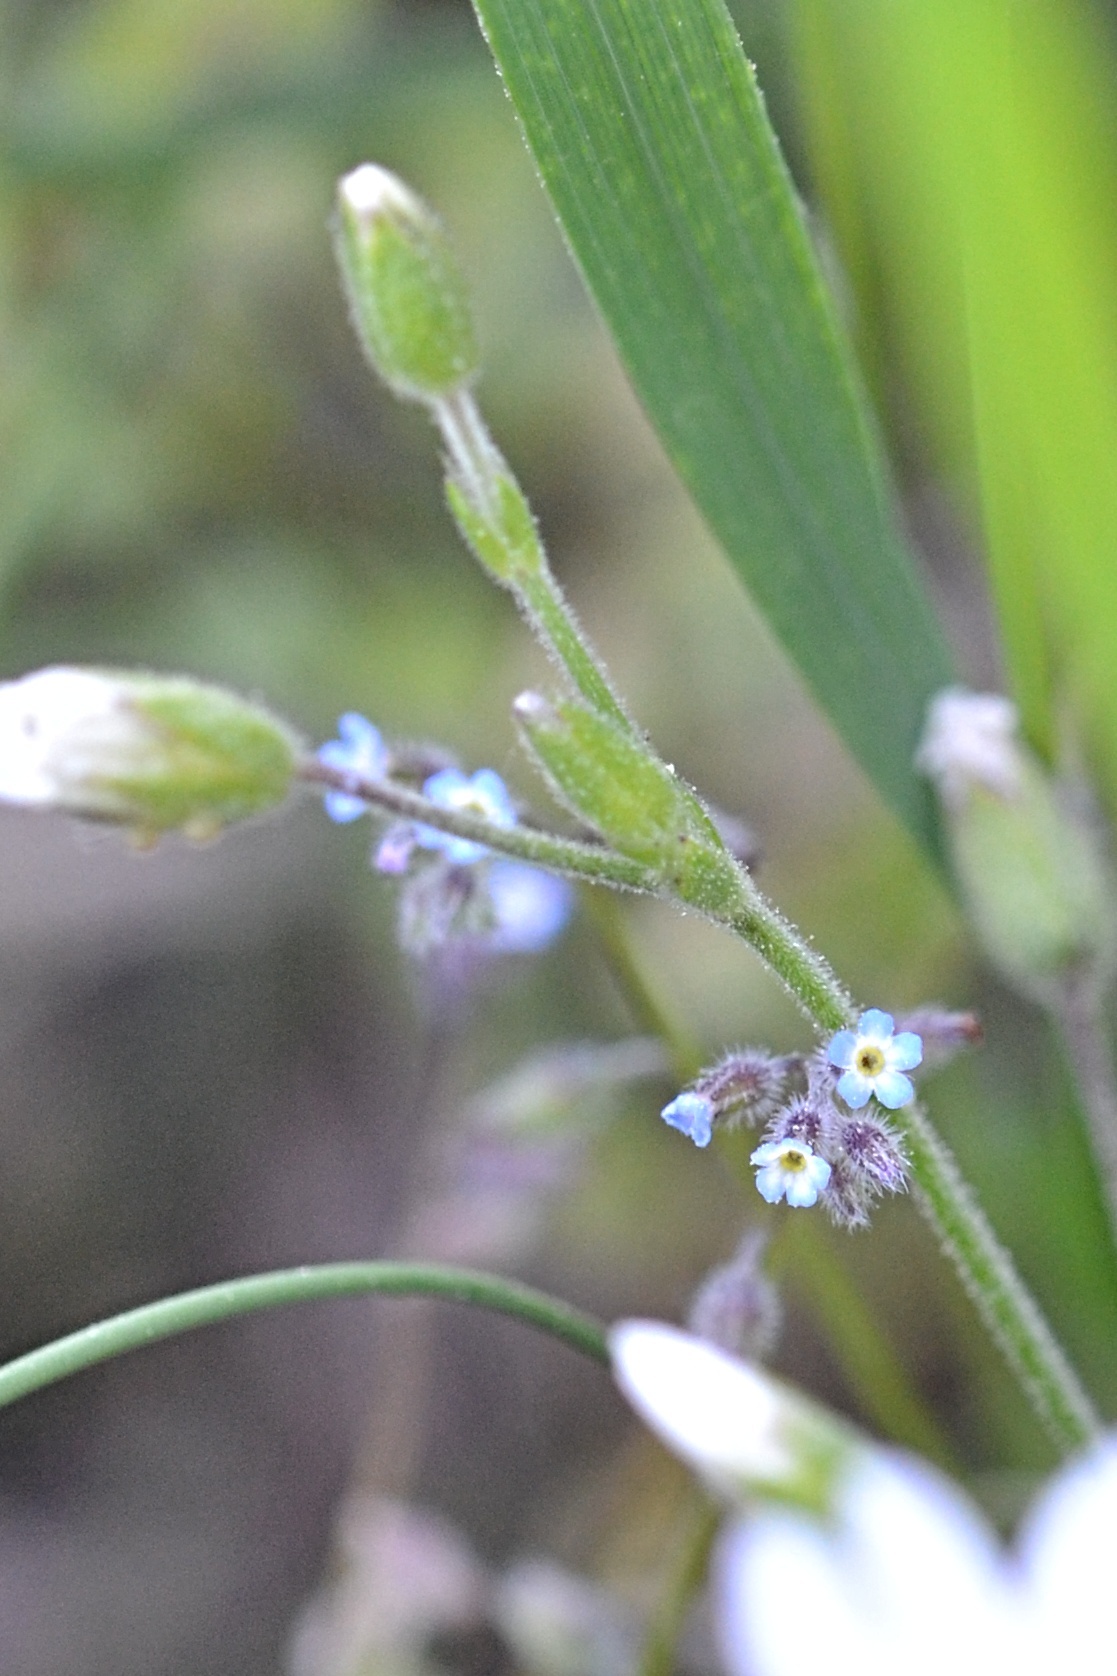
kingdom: Plantae
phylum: Tracheophyta
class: Magnoliopsida
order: Boraginales
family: Boraginaceae
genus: Myosotis
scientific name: Myosotis ramosissima
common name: Early forget-me-not
